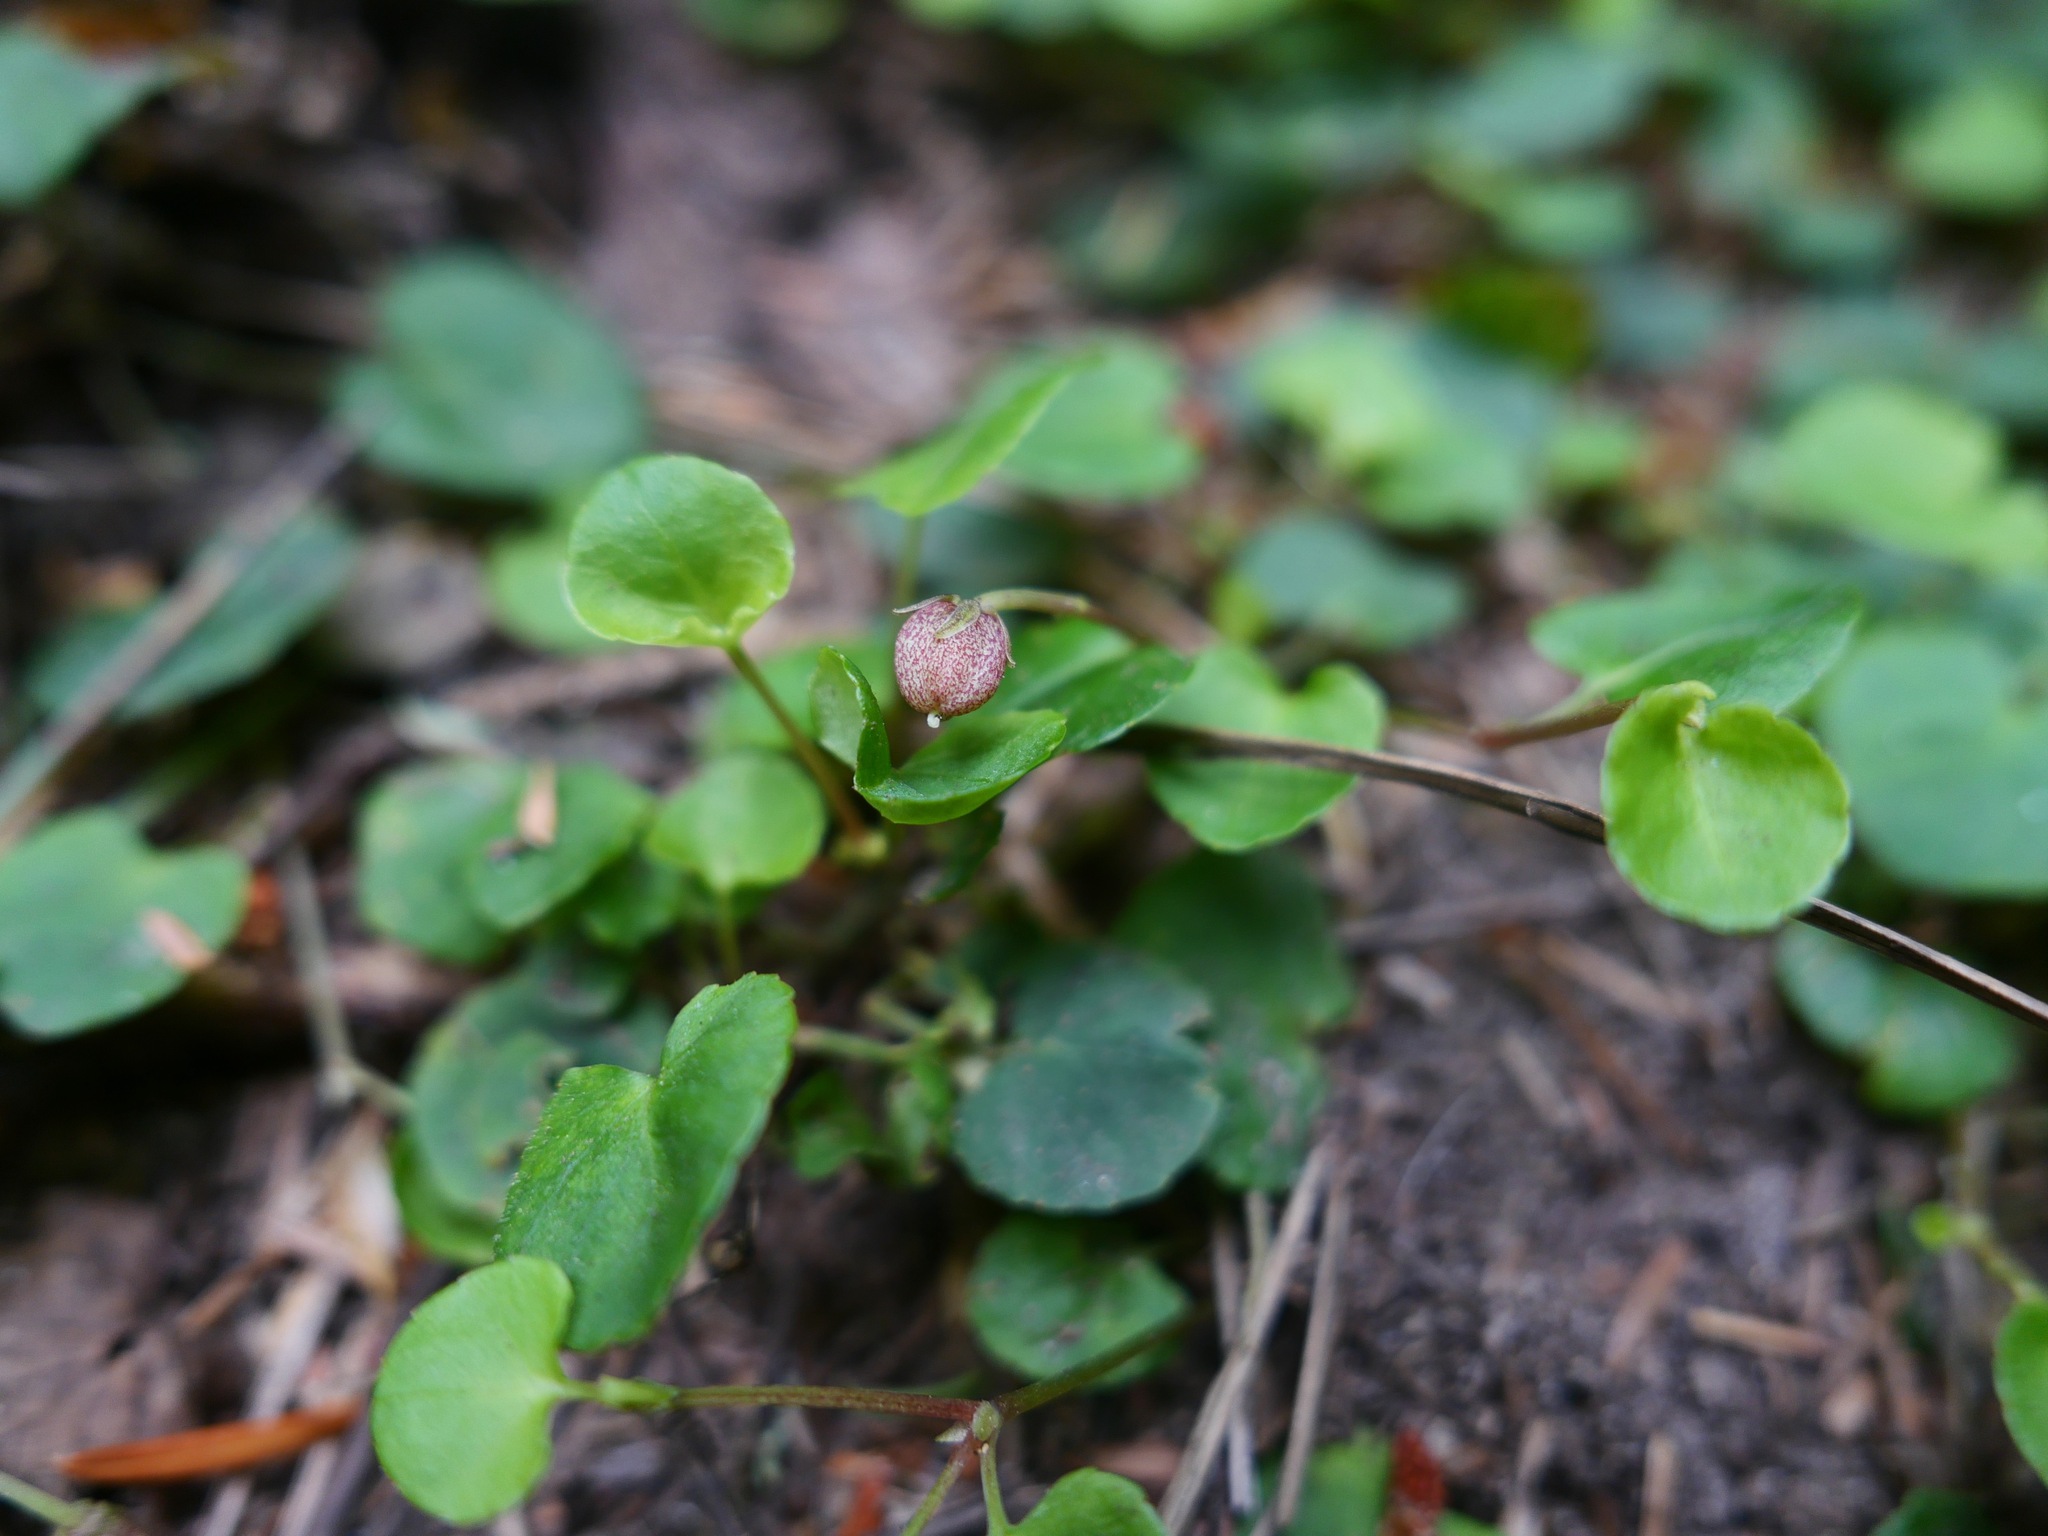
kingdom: Plantae
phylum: Tracheophyta
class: Magnoliopsida
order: Malpighiales
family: Violaceae
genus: Viola
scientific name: Viola sempervirens
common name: Evergreen violet
